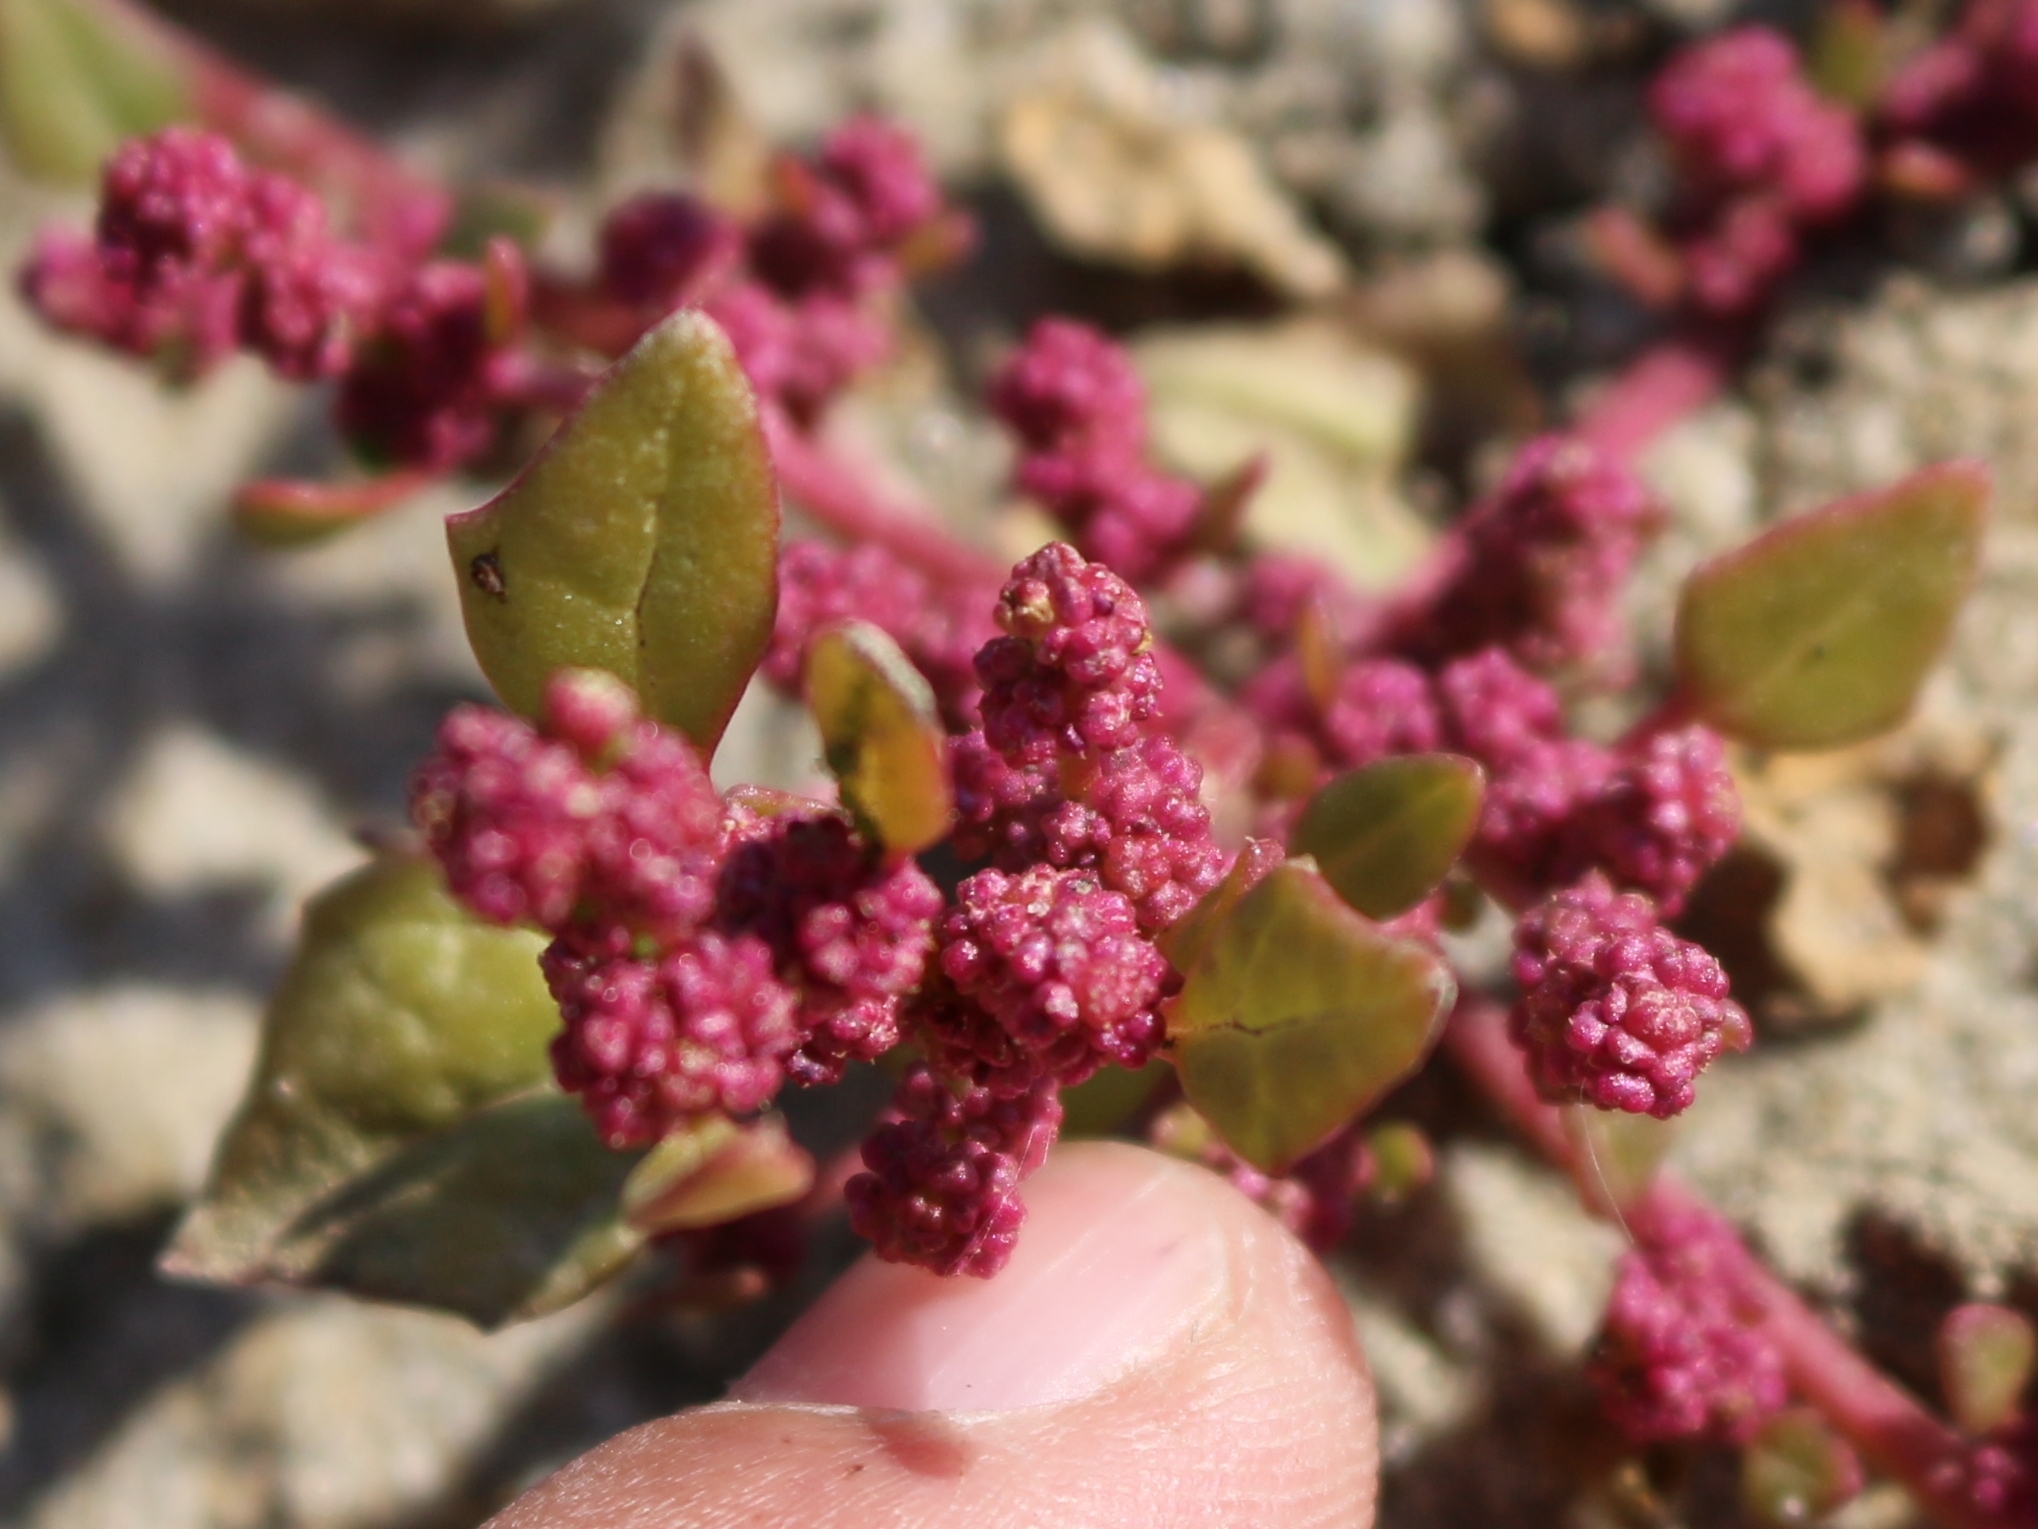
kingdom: Plantae
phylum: Tracheophyta
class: Magnoliopsida
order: Caryophyllales
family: Amaranthaceae
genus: Oxybasis
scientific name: Oxybasis rubra
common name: Red goosefoot
